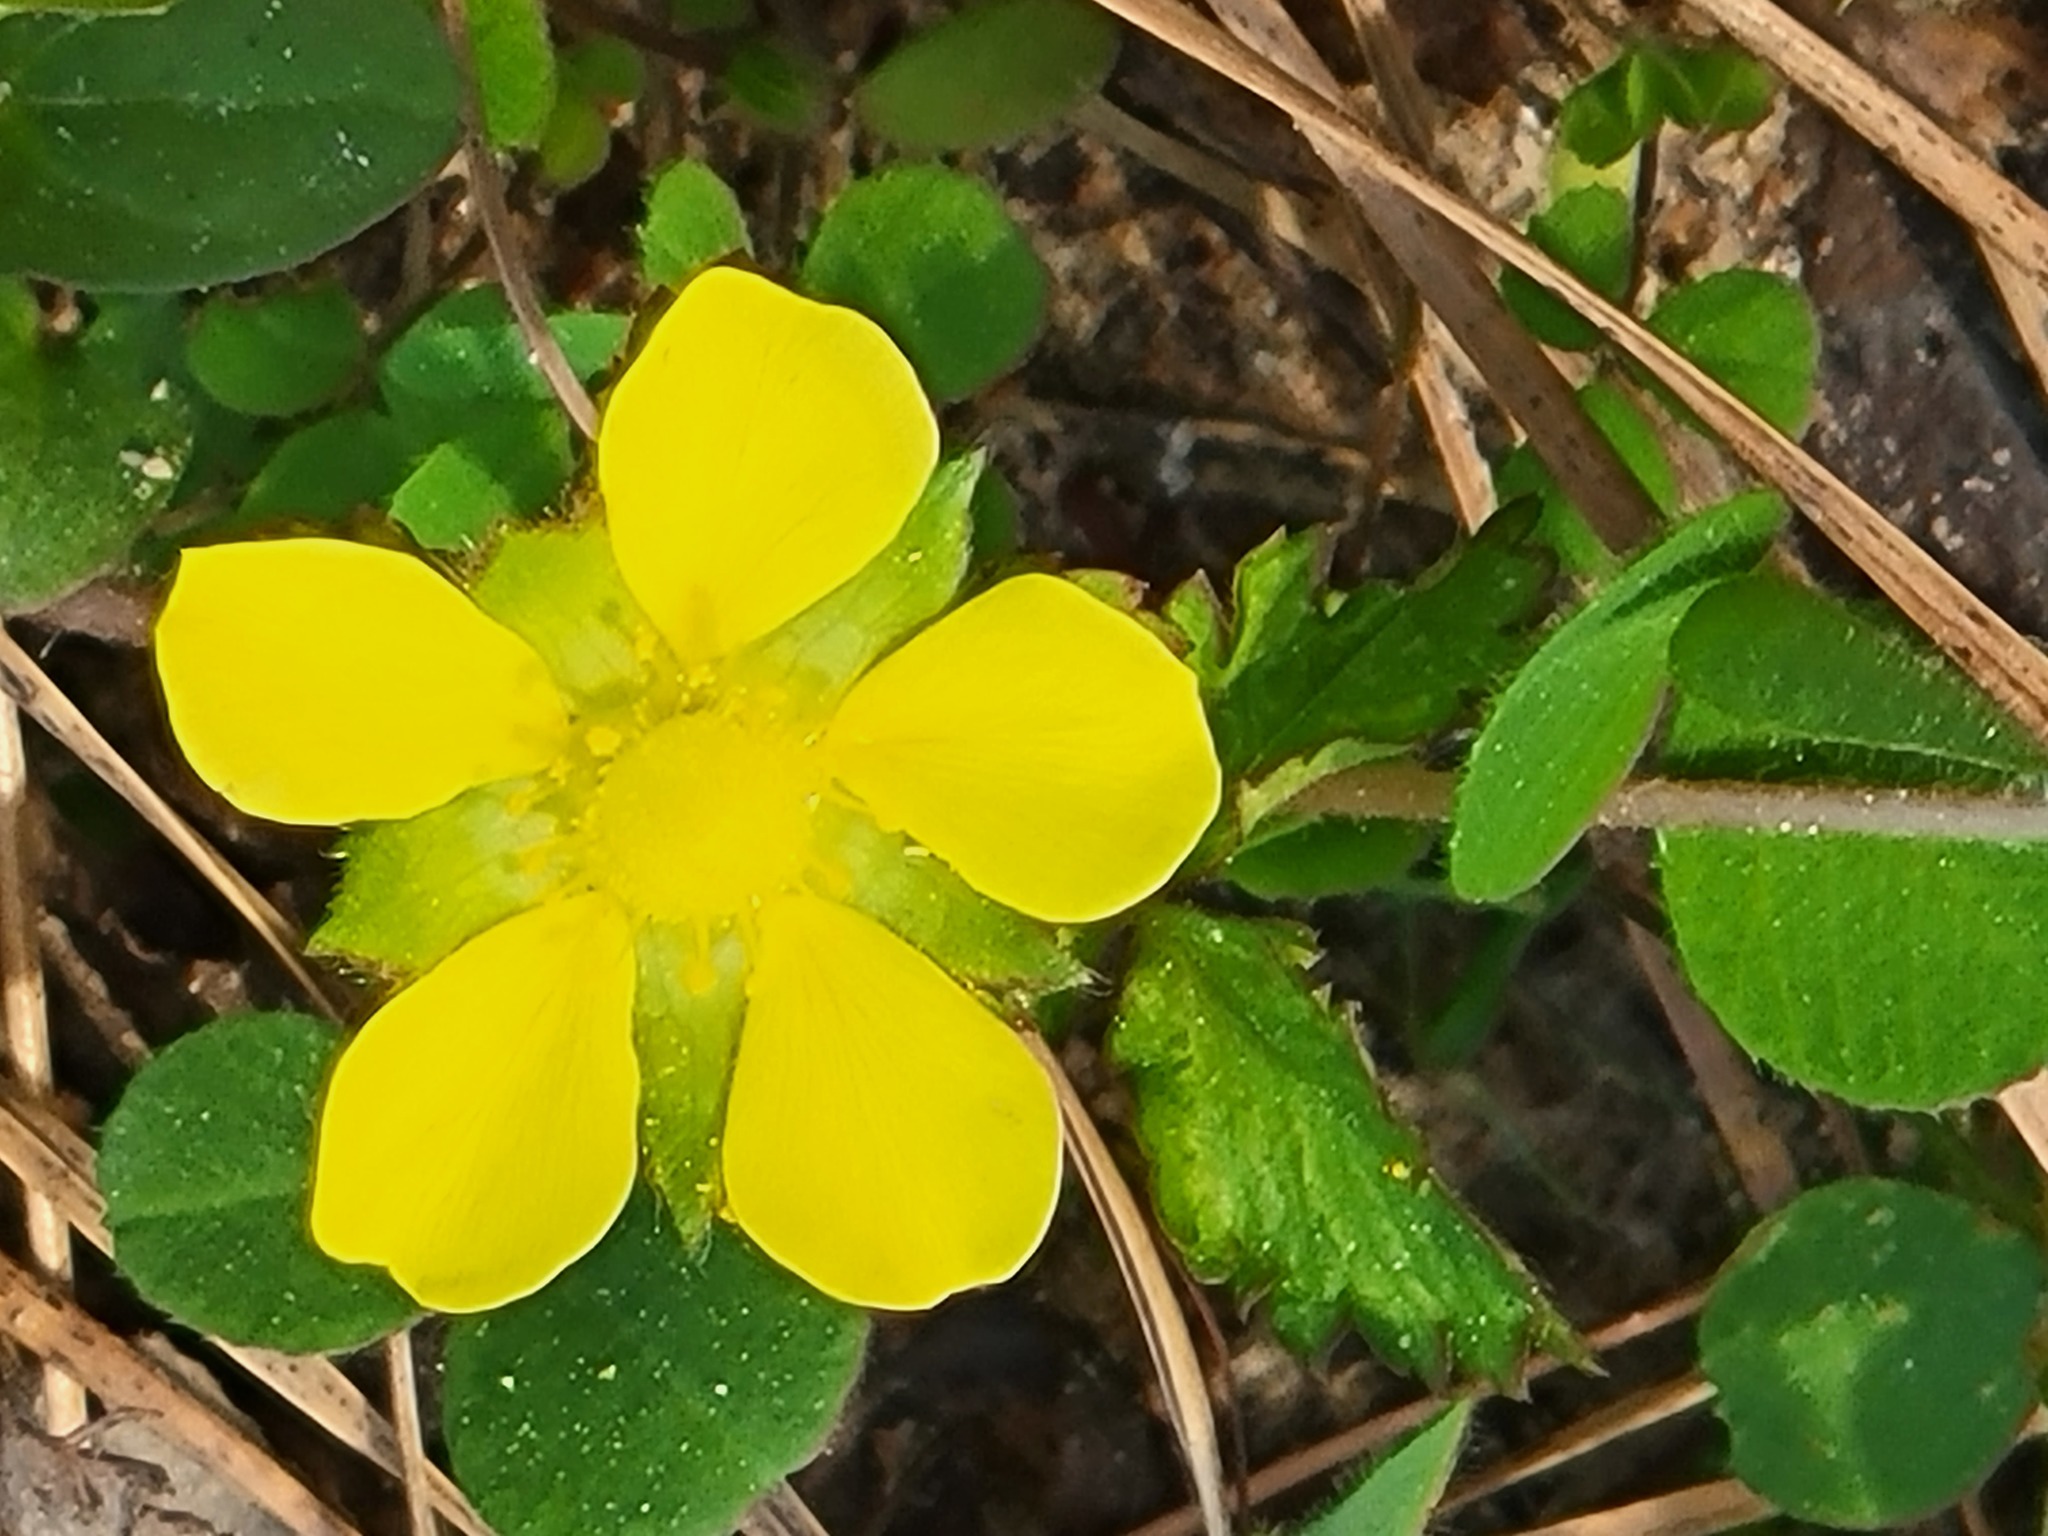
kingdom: Plantae
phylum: Tracheophyta
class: Magnoliopsida
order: Rosales
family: Rosaceae
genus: Potentilla
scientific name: Potentilla indica
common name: Yellow-flowered strawberry
